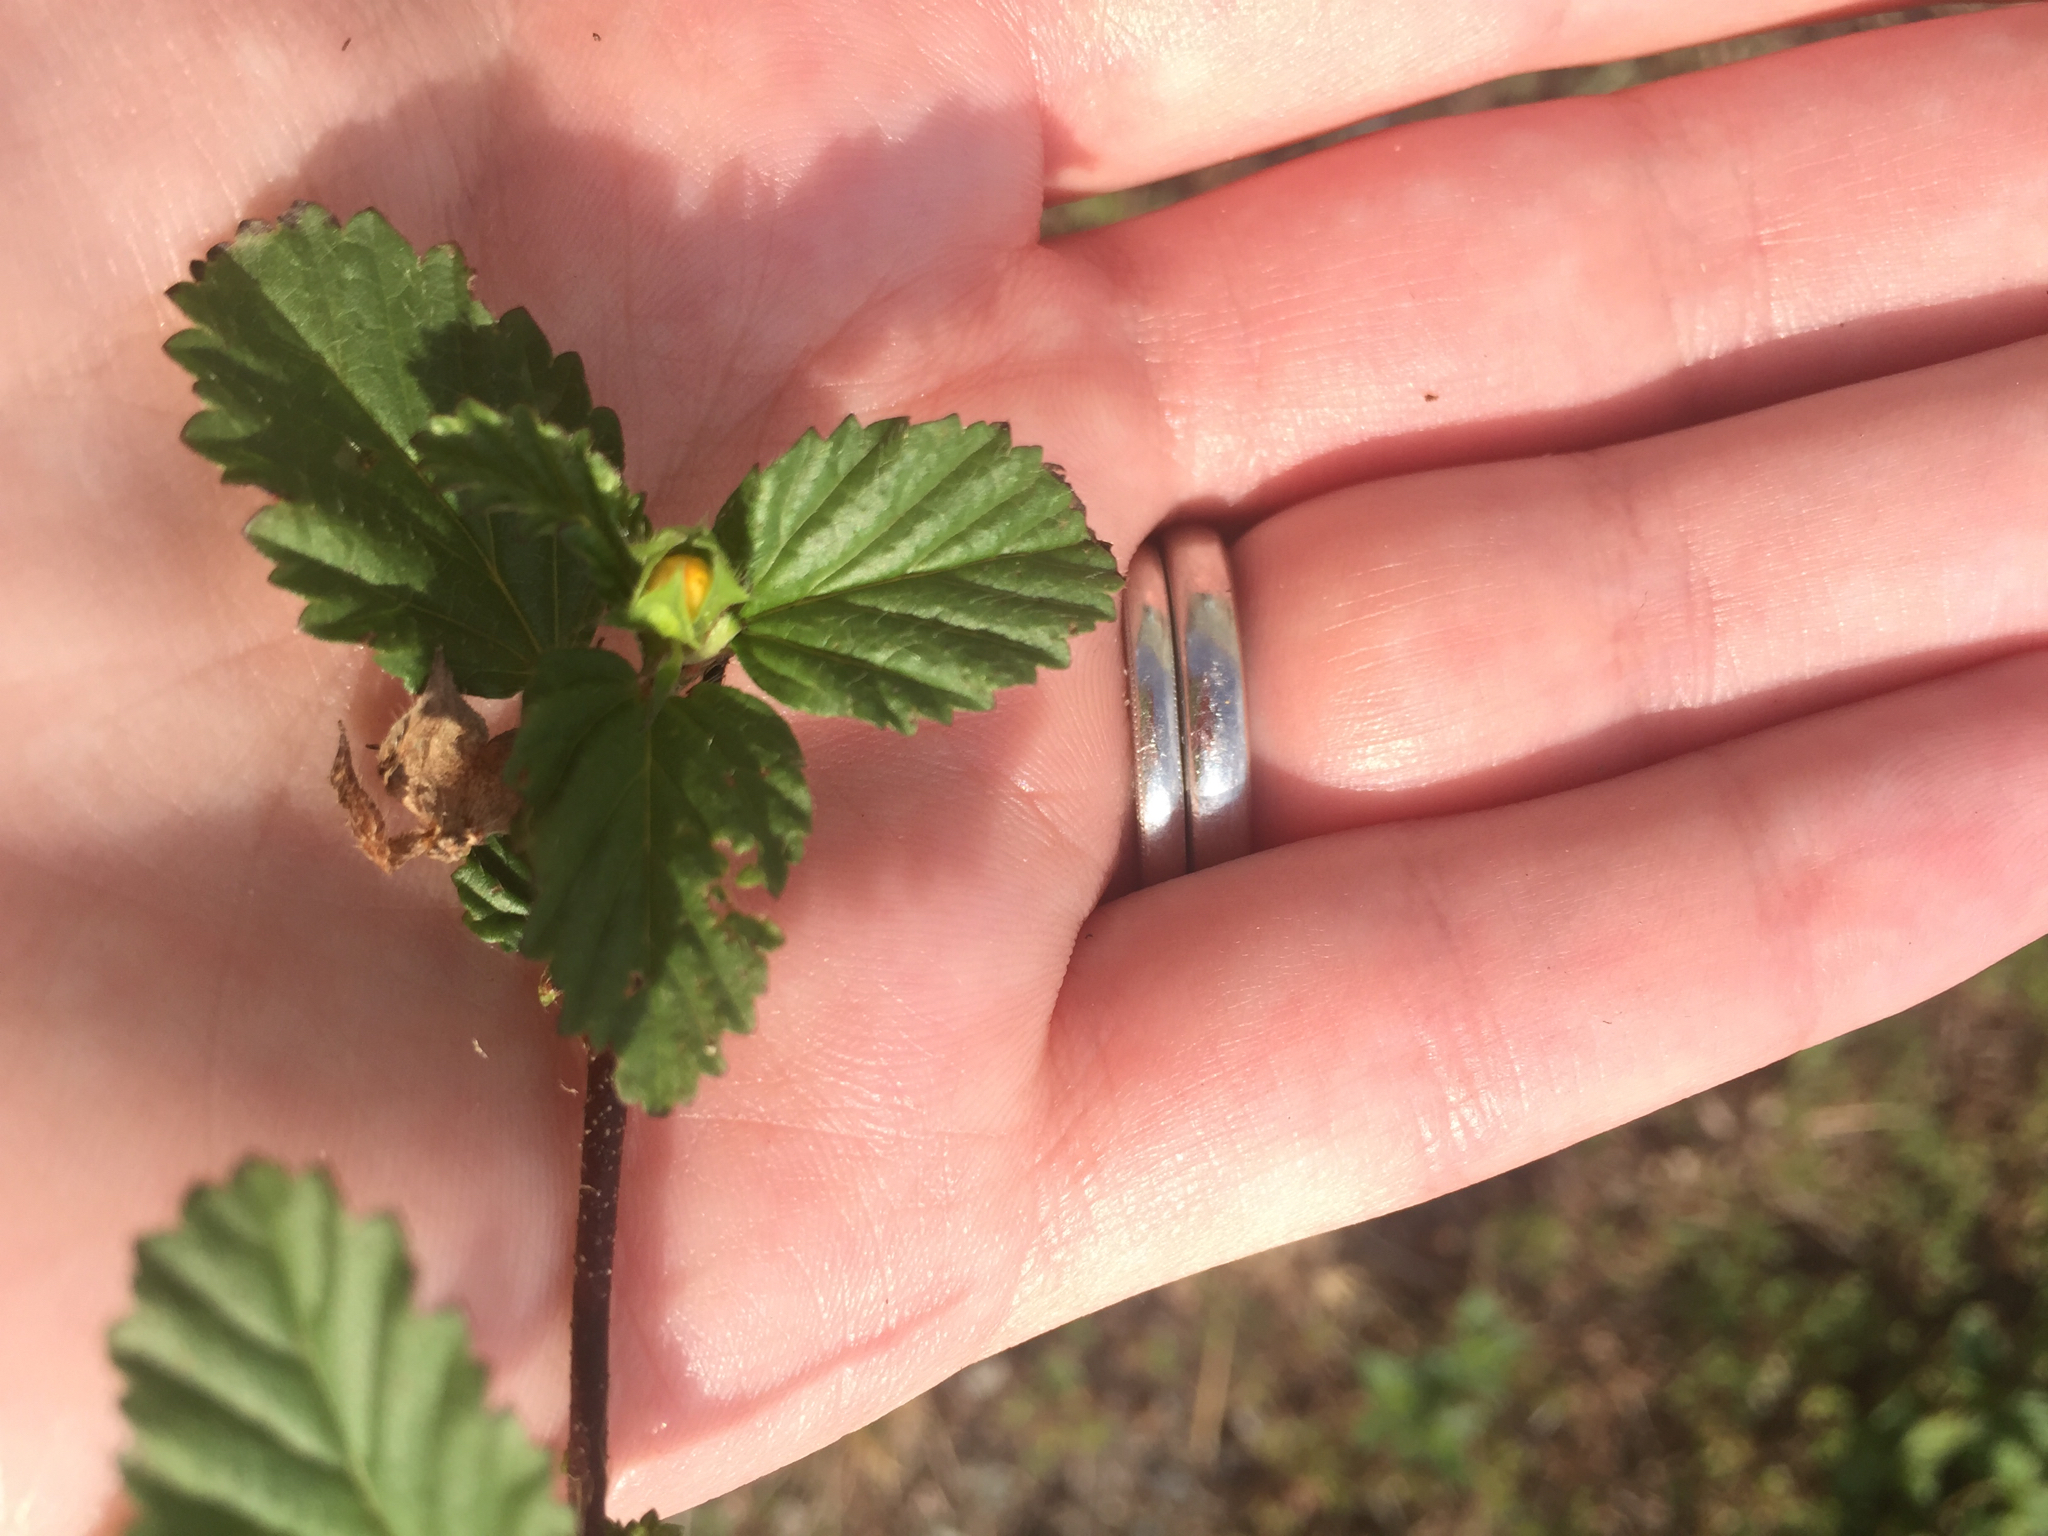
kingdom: Plantae
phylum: Tracheophyta
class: Magnoliopsida
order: Malvales
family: Malvaceae
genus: Malvastrum
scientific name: Malvastrum coromandelianum
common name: Threelobe false mallow
